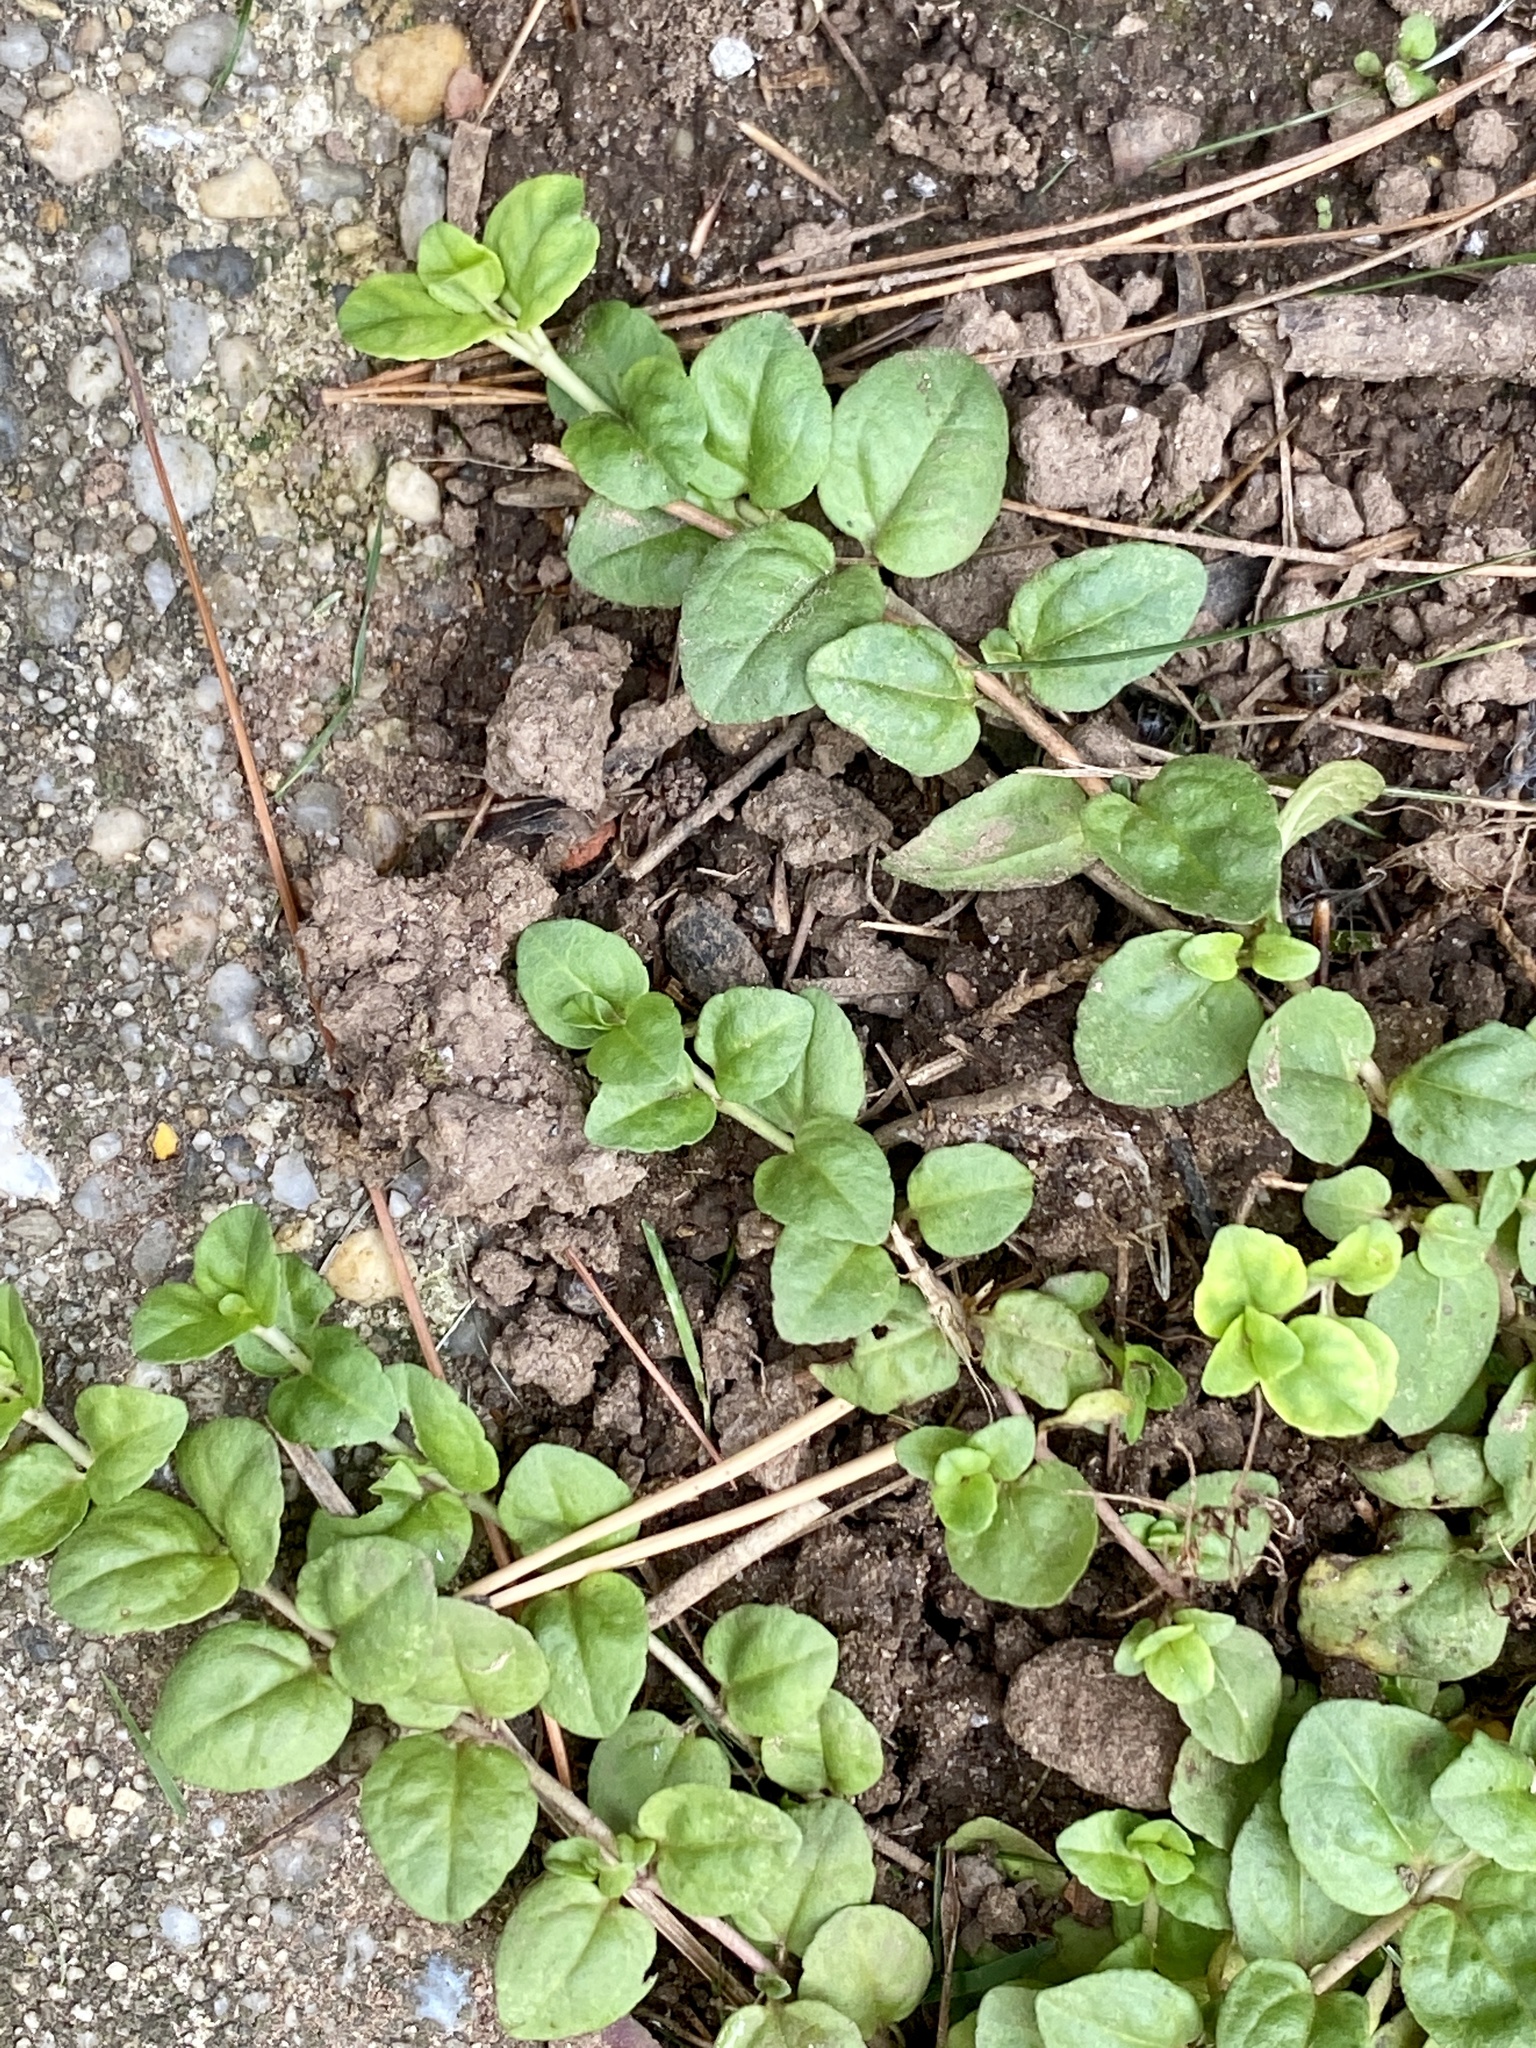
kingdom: Plantae
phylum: Tracheophyta
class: Magnoliopsida
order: Lamiales
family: Plantaginaceae
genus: Veronica
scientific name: Veronica serpyllifolia
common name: Thyme-leaved speedwell
